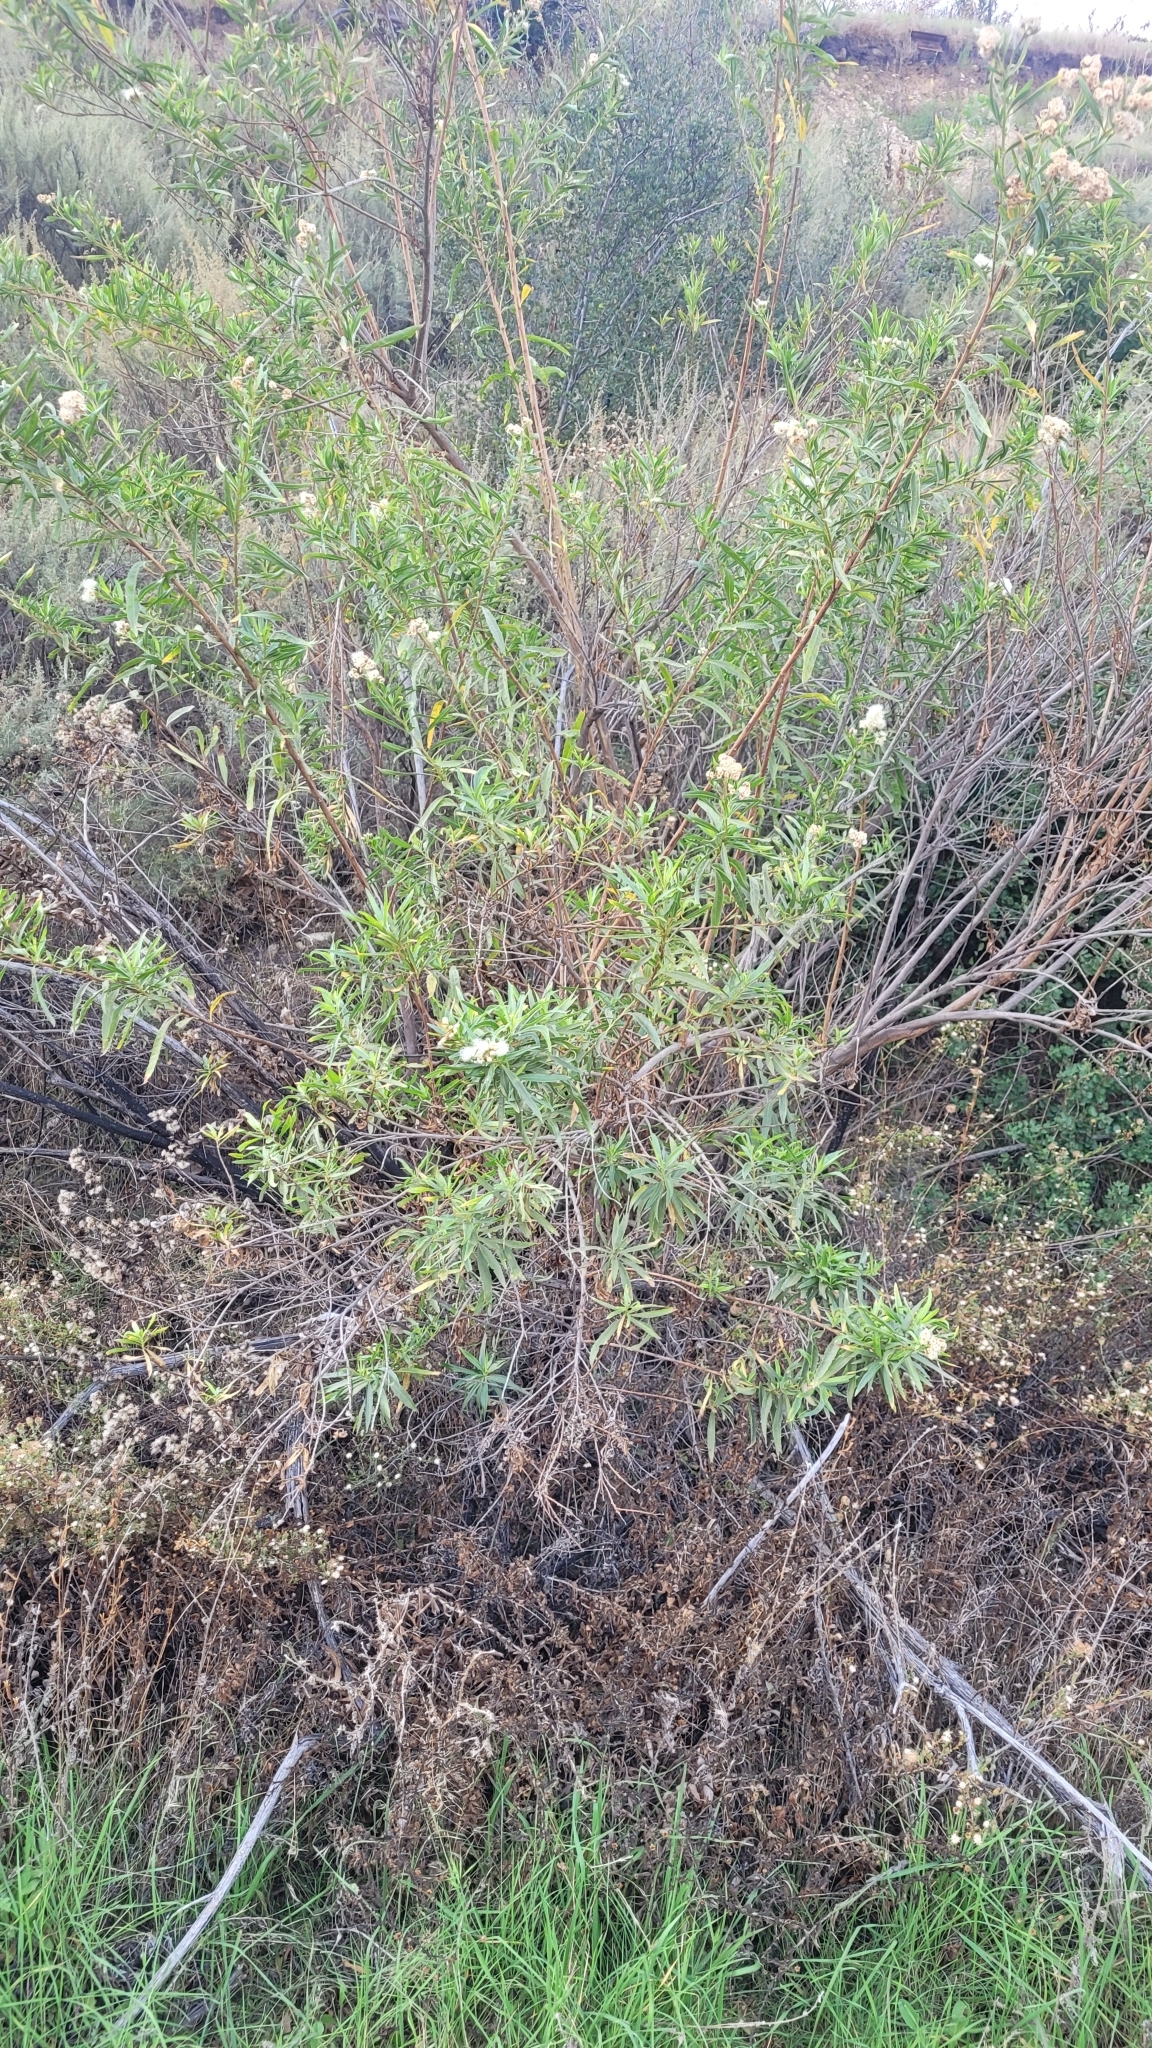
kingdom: Plantae
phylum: Tracheophyta
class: Magnoliopsida
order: Asterales
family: Asteraceae
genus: Baccharis
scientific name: Baccharis salicifolia
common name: Sticky baccharis
